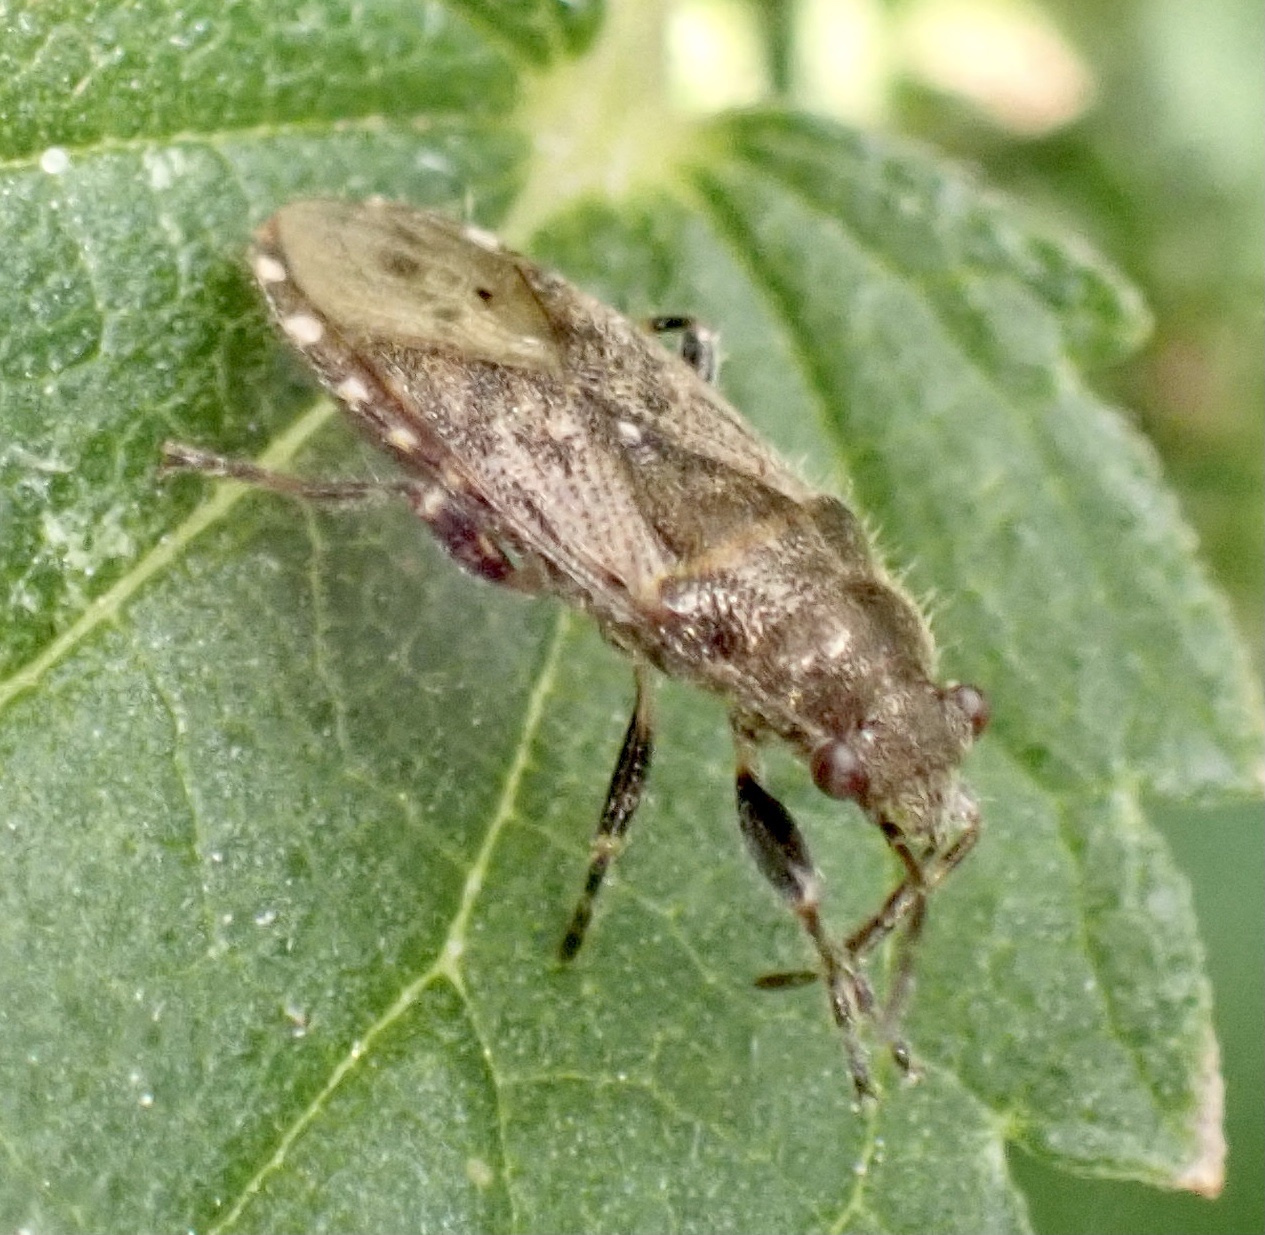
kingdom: Animalia
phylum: Arthropoda
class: Insecta
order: Hemiptera
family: Heterogastridae
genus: Heterogaster
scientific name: Heterogaster urticae
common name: Seed bug
